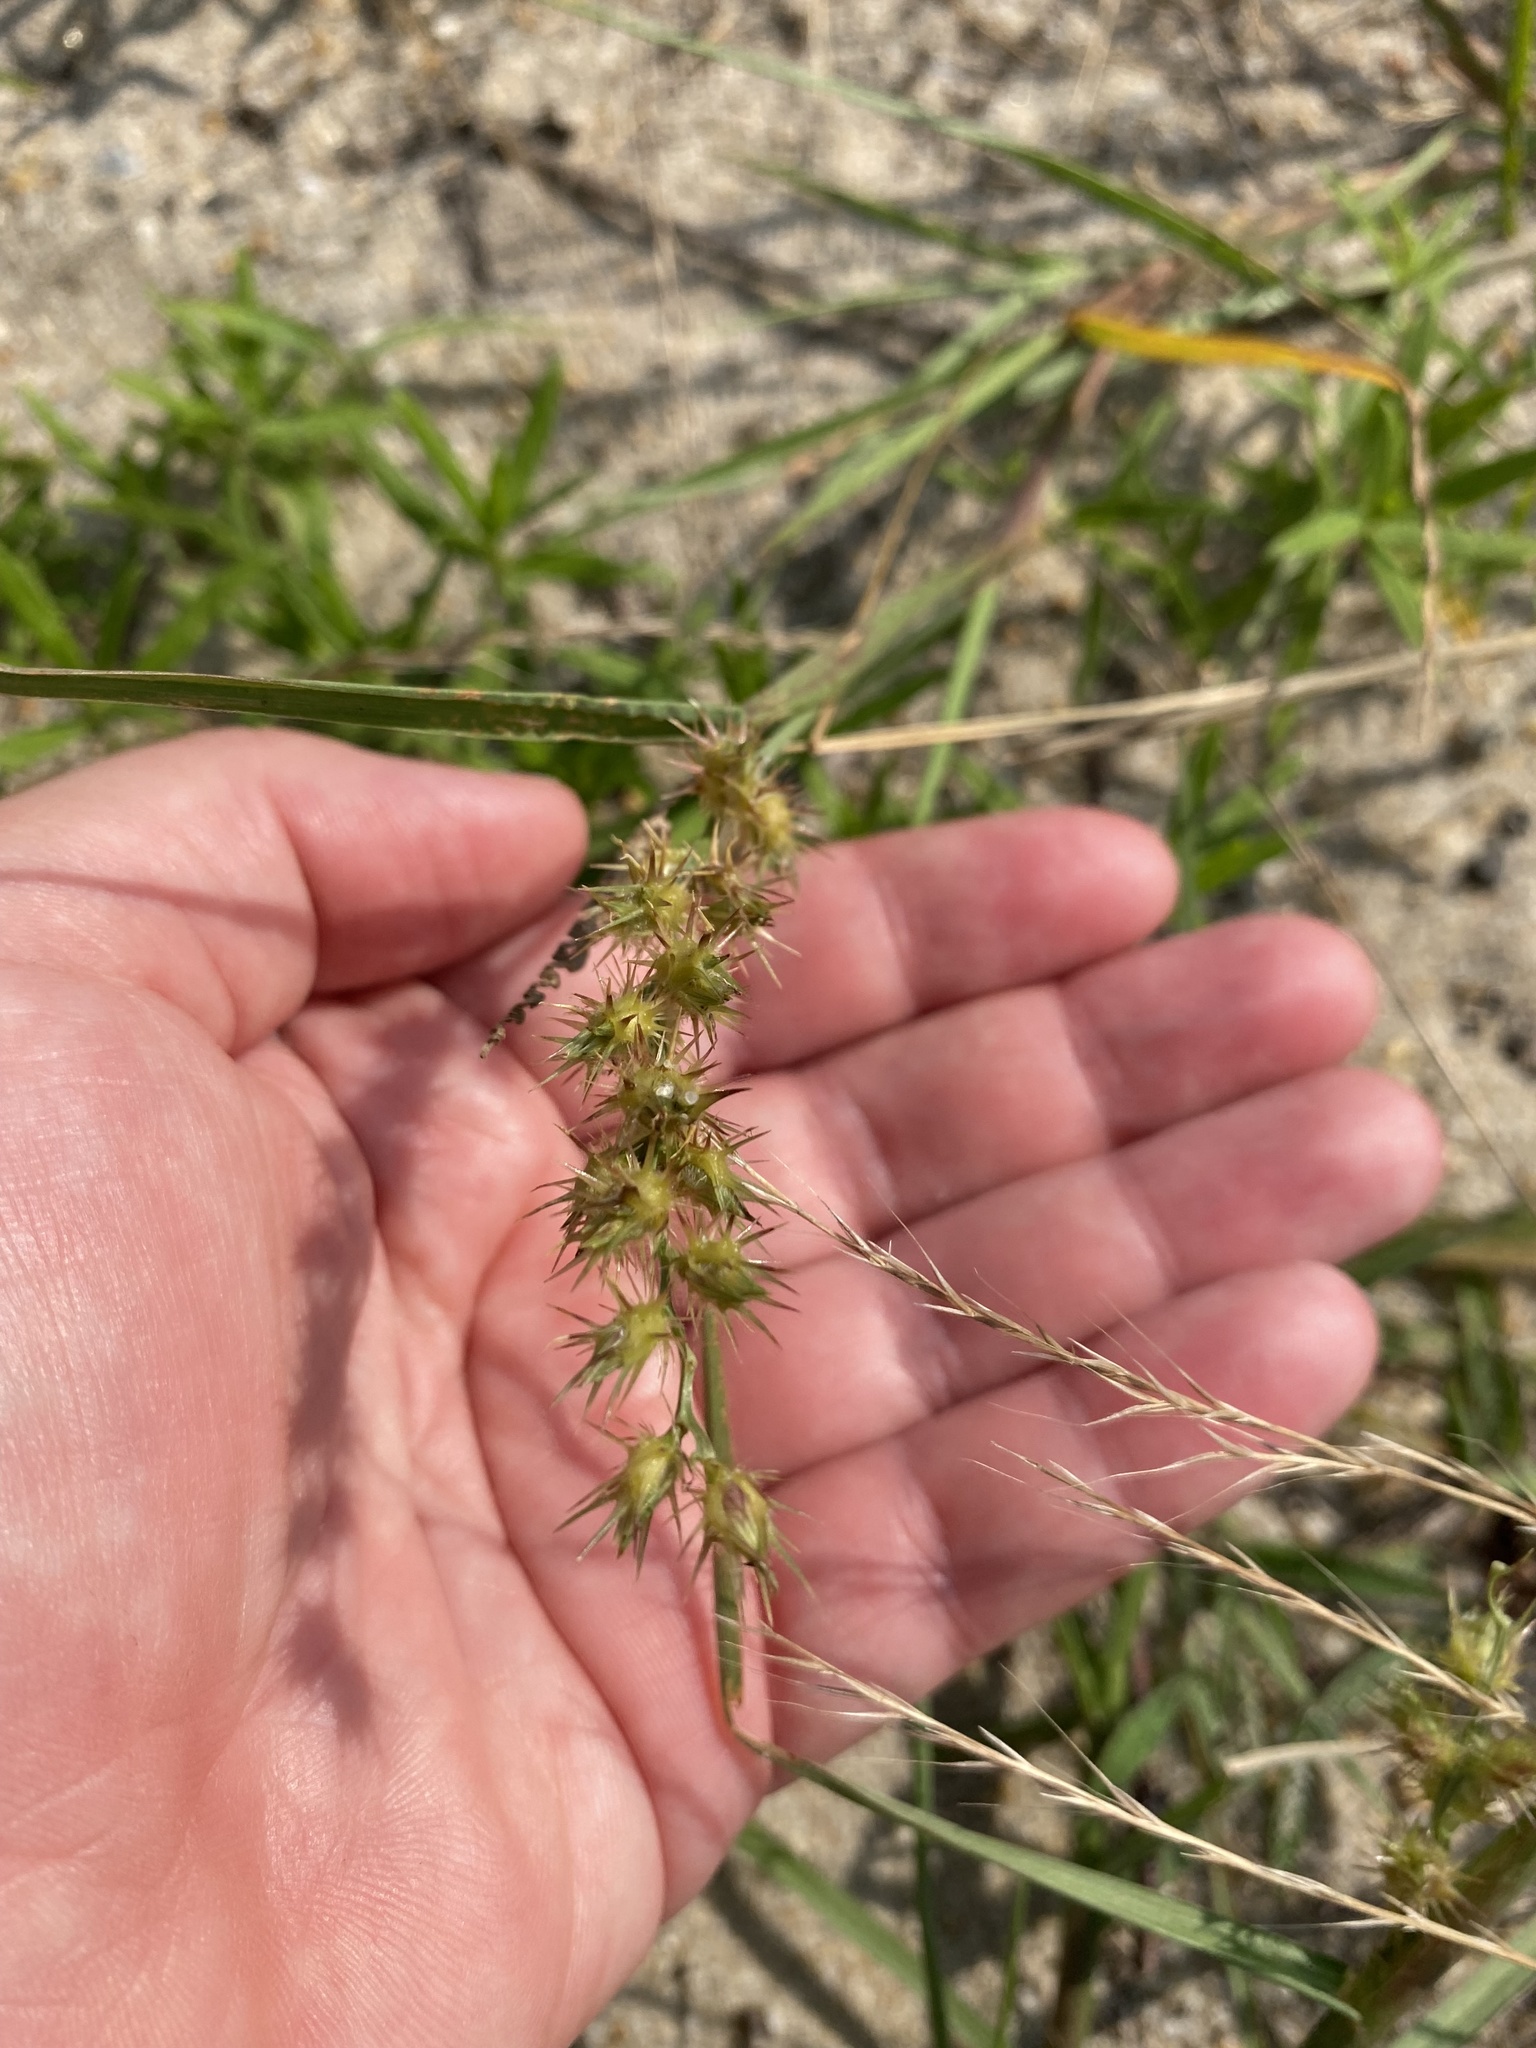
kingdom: Plantae
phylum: Tracheophyta
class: Liliopsida
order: Poales
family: Poaceae
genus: Festuca
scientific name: Festuca myuros
